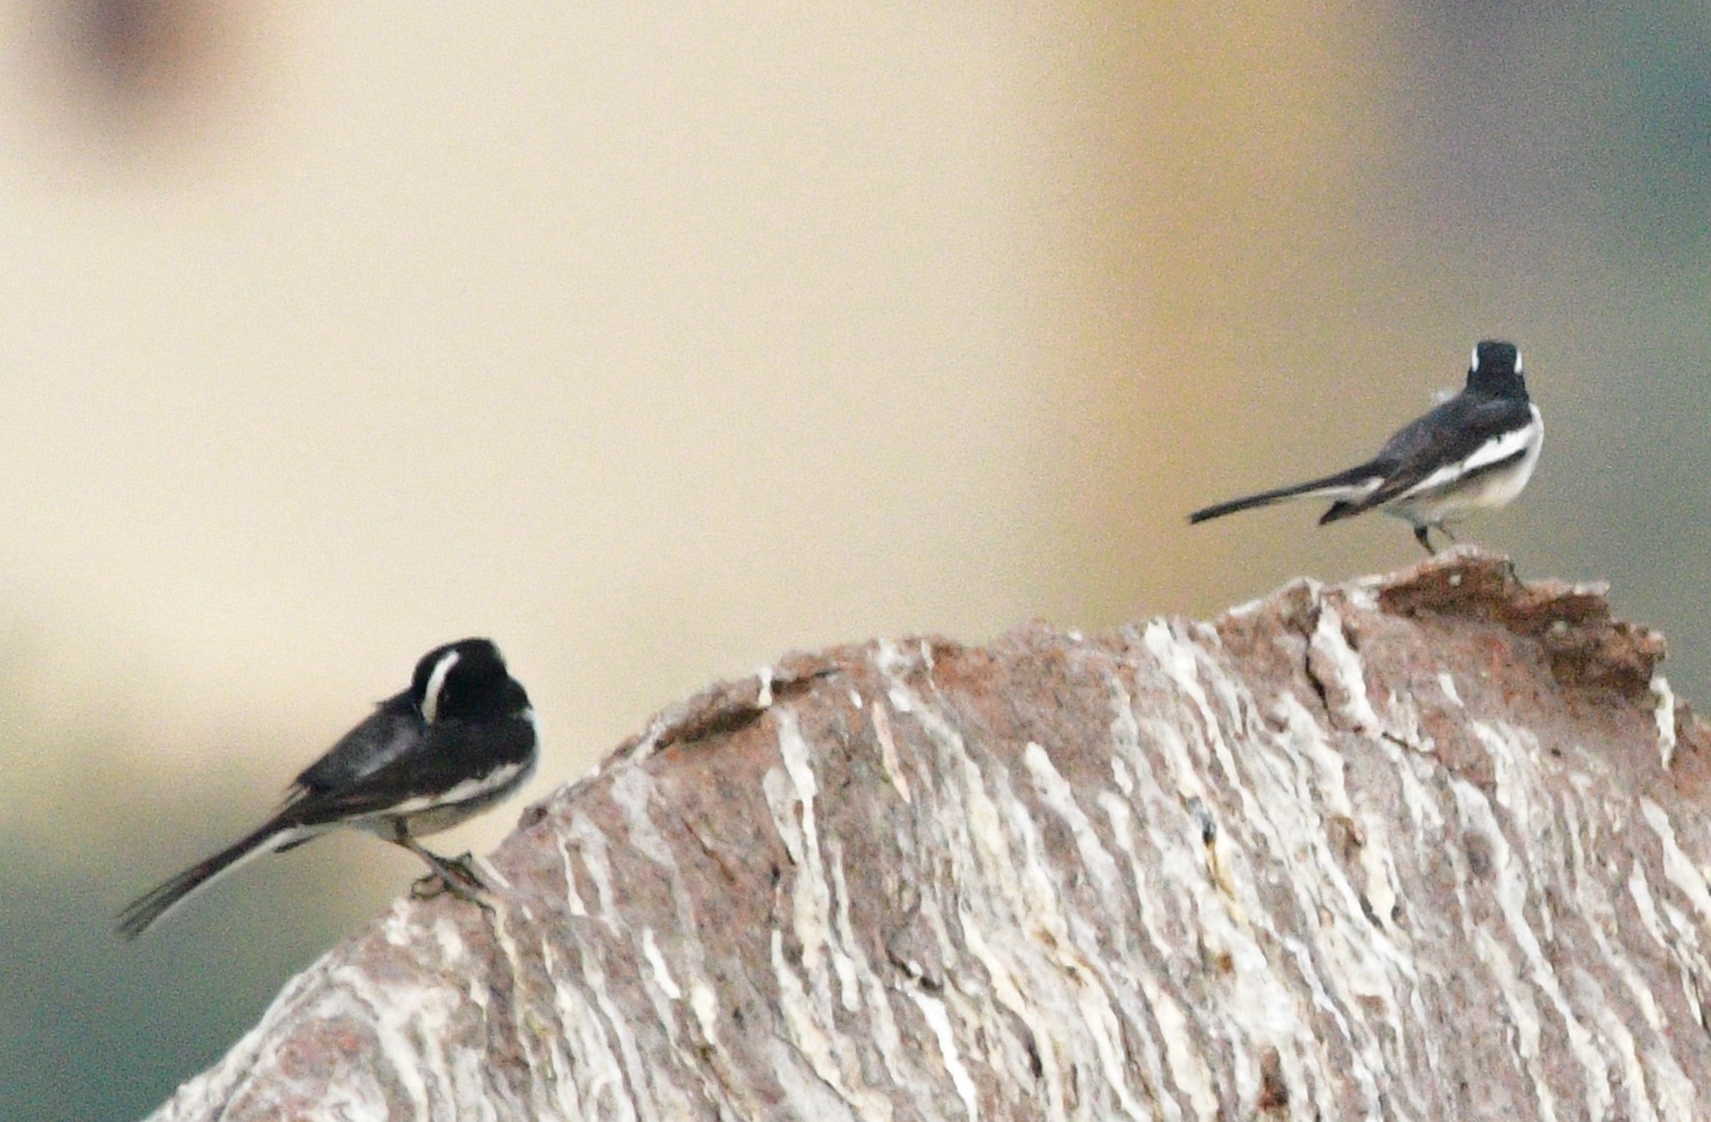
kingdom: Animalia
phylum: Chordata
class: Aves
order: Passeriformes
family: Motacillidae
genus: Motacilla
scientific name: Motacilla maderaspatensis
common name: White-browed wagtail
